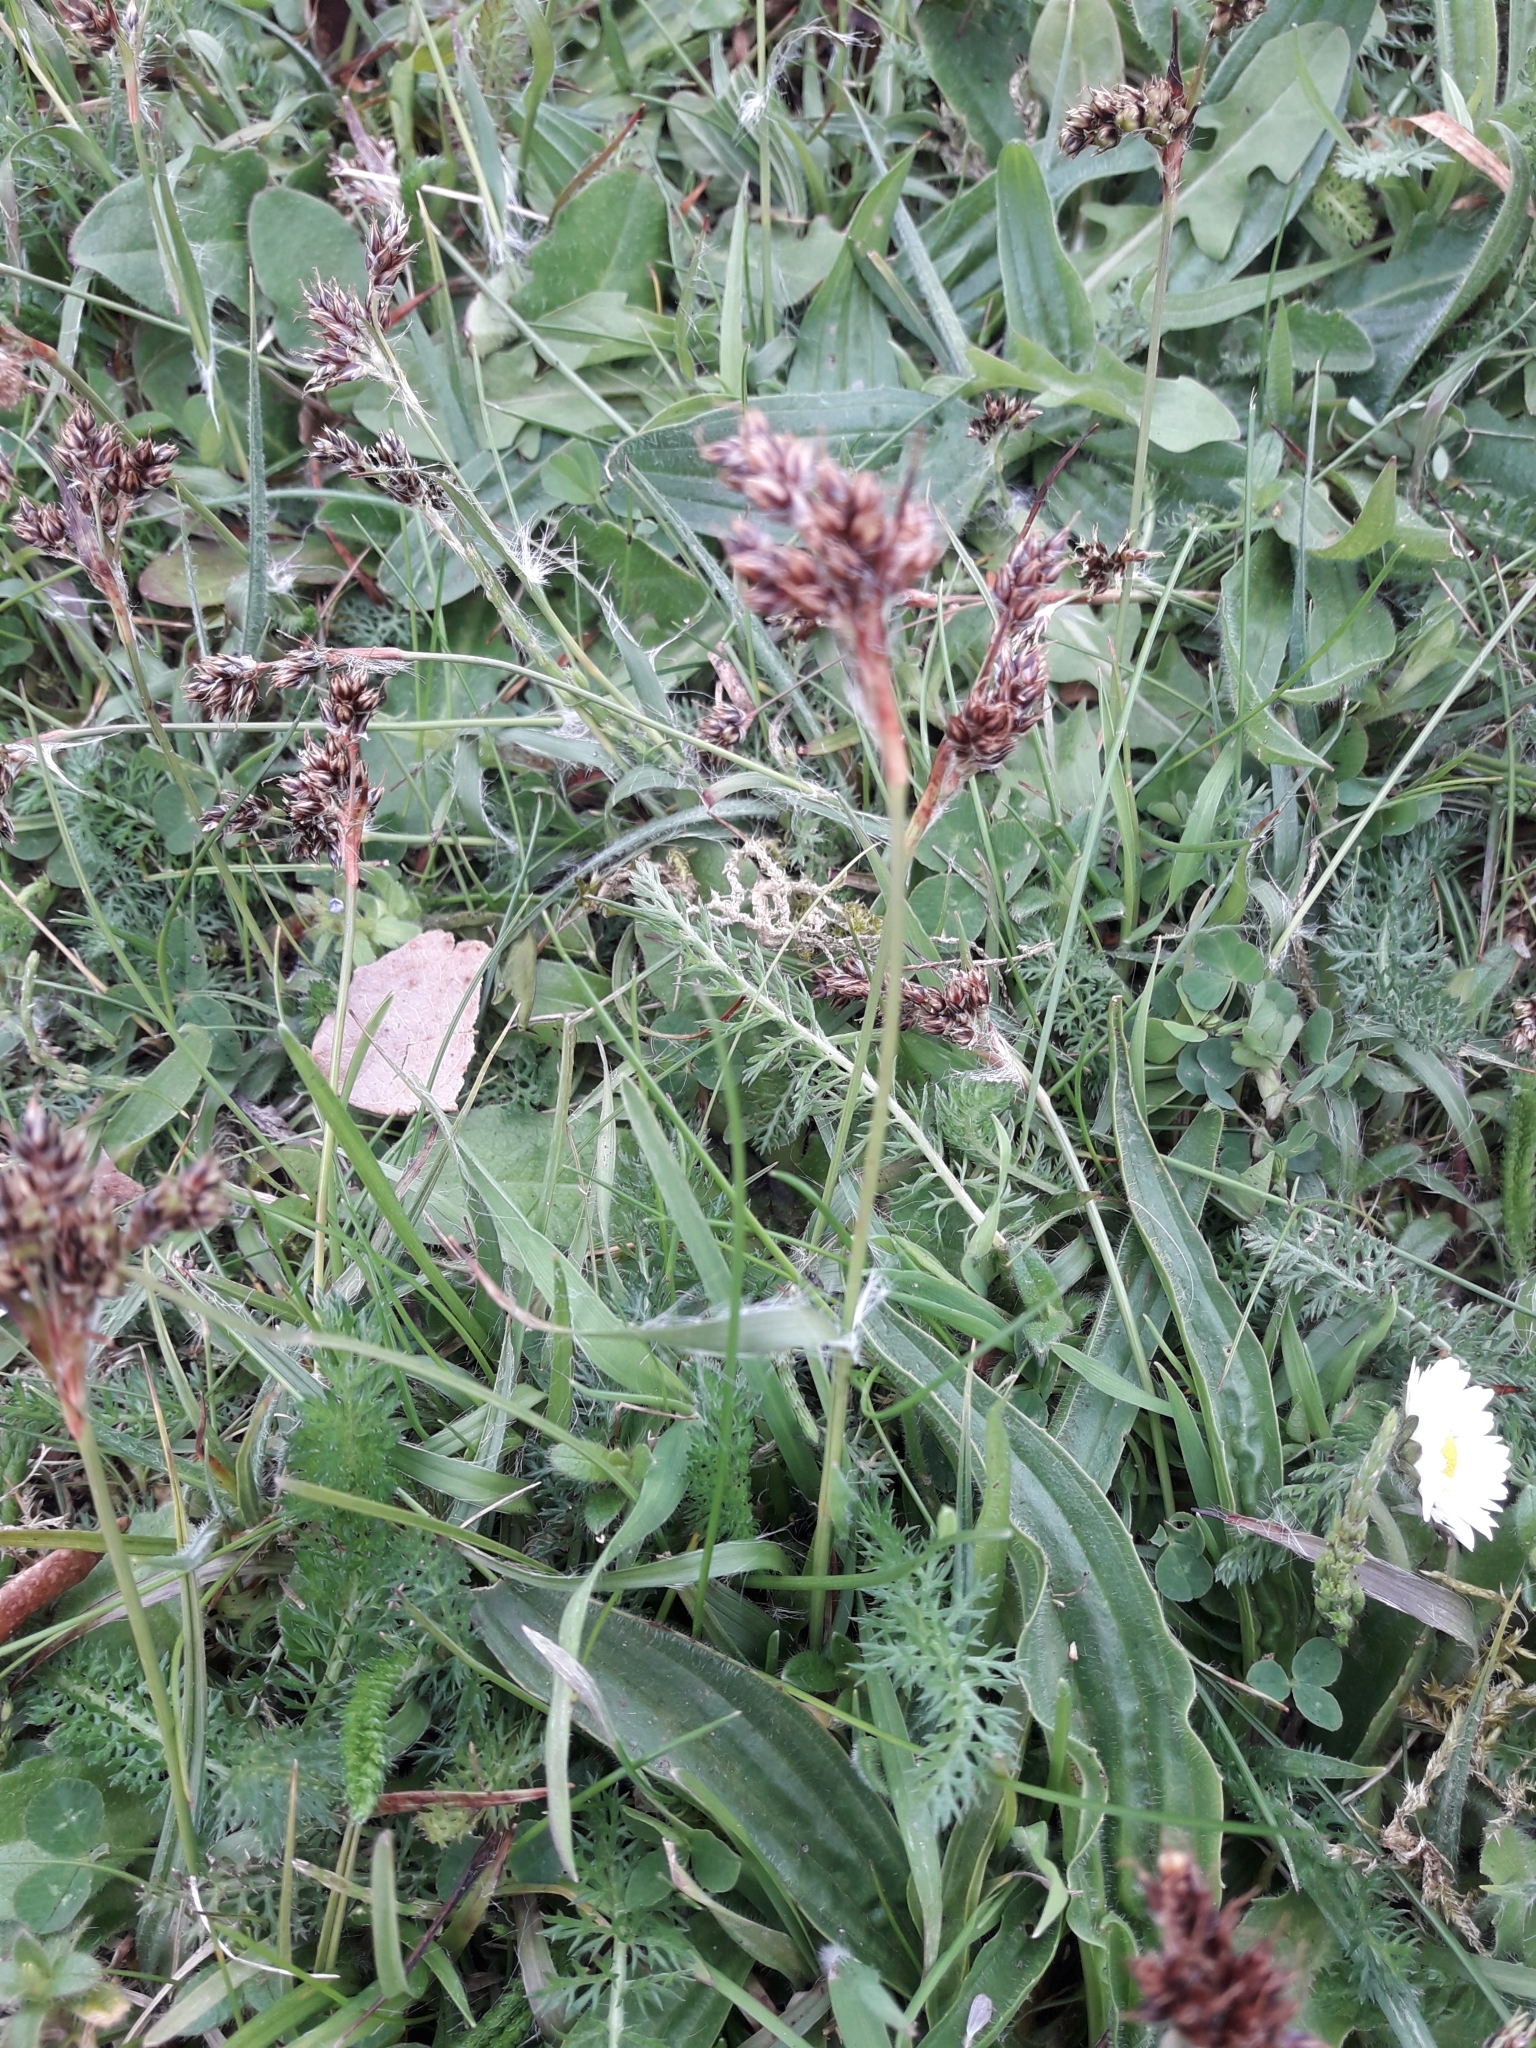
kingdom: Plantae
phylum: Tracheophyta
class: Liliopsida
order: Poales
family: Juncaceae
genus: Luzula
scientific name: Luzula campestris
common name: Field wood-rush
